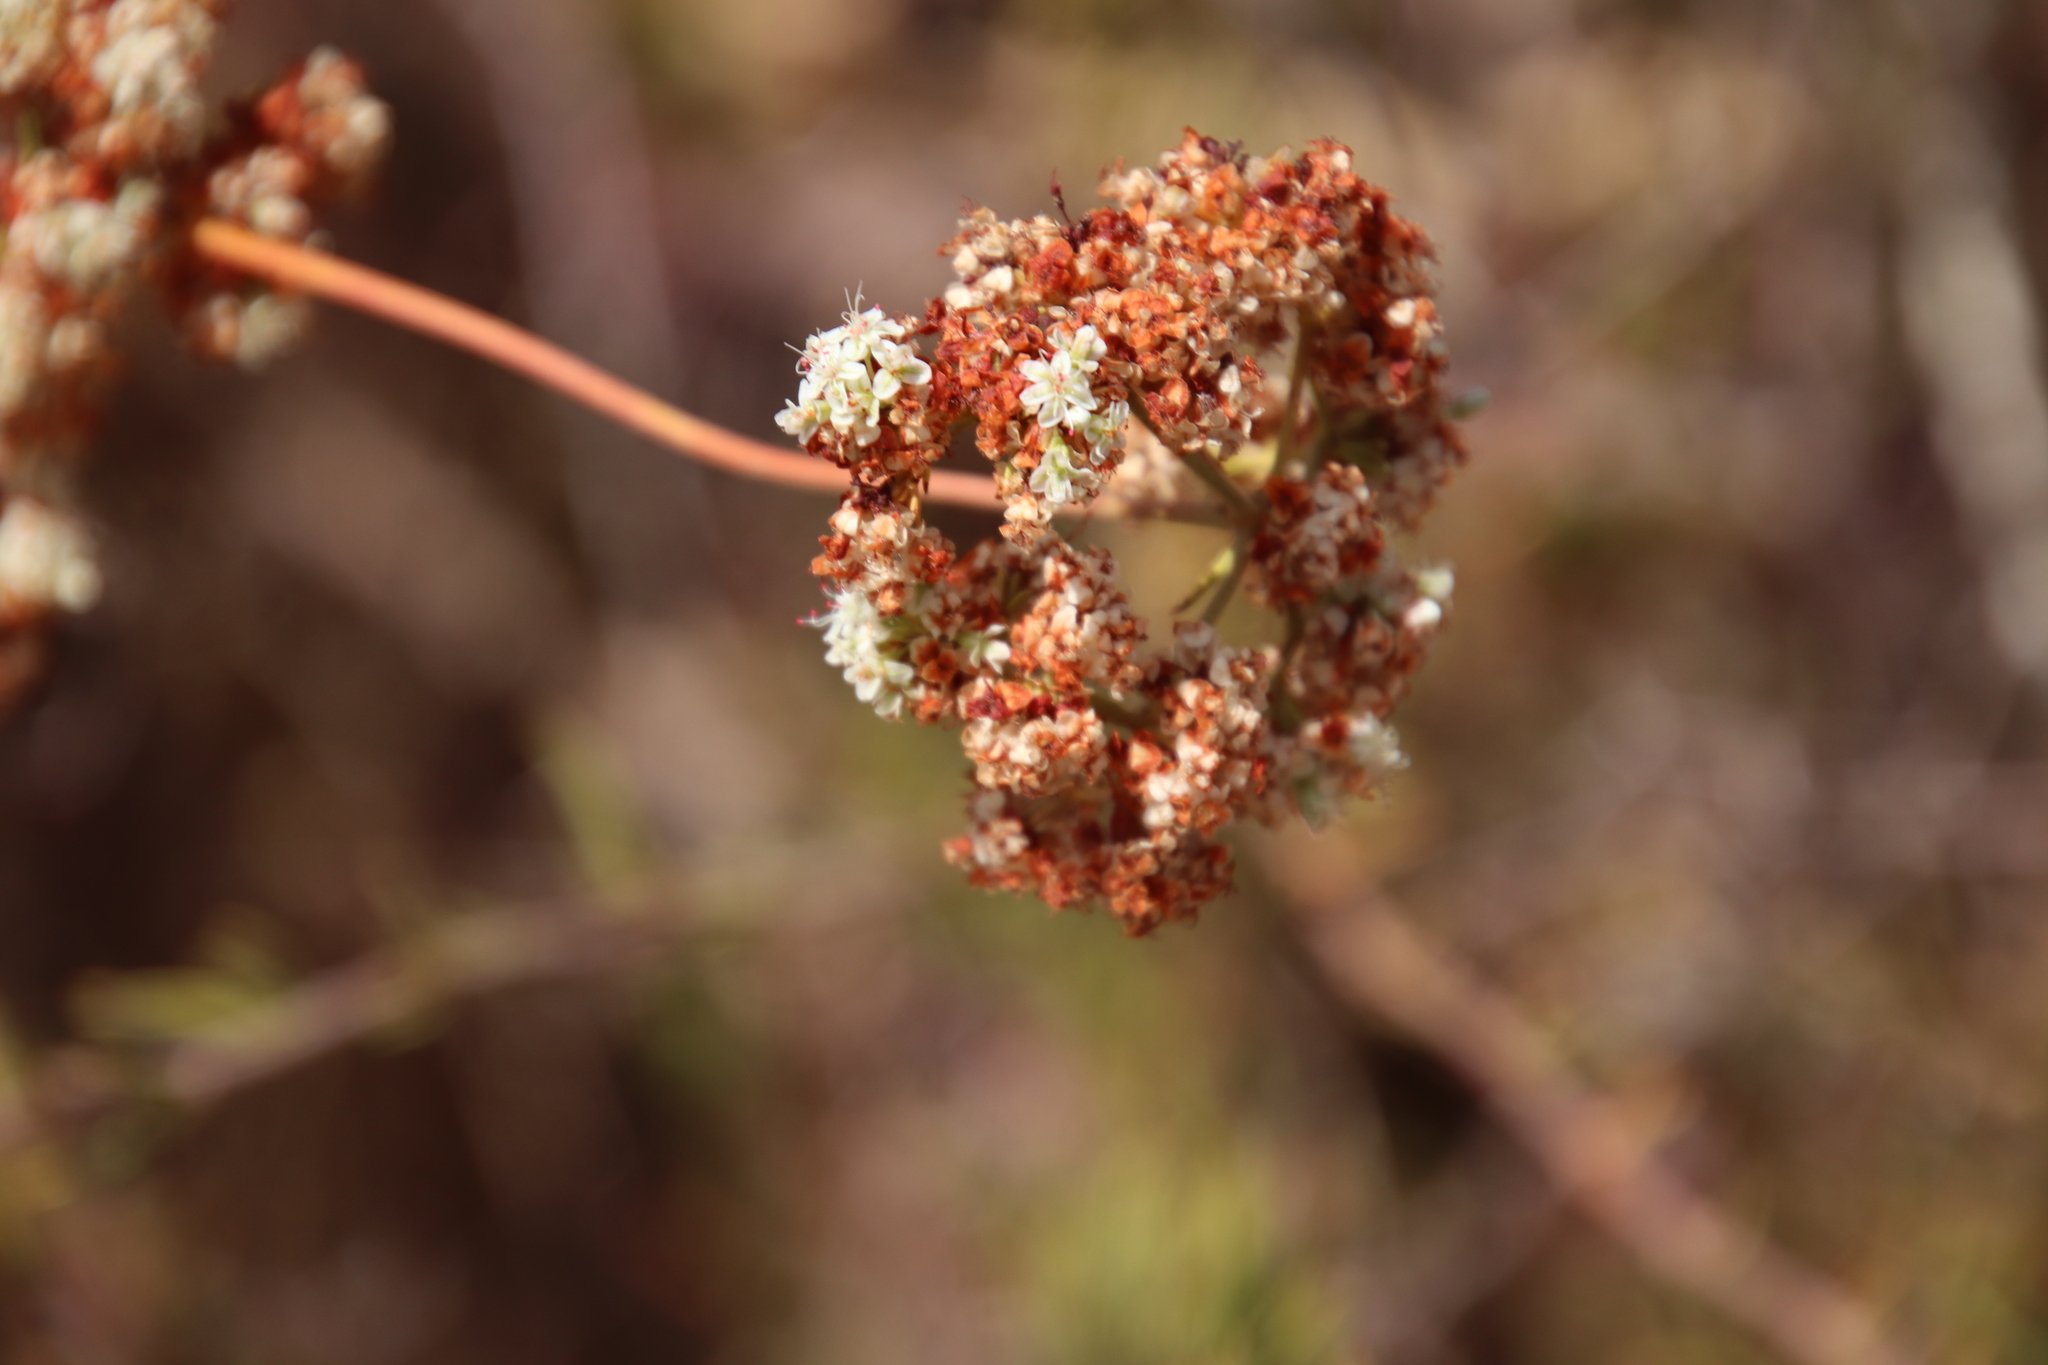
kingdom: Plantae
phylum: Tracheophyta
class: Magnoliopsida
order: Caryophyllales
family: Polygonaceae
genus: Eriogonum
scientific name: Eriogonum fasciculatum
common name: California wild buckwheat
